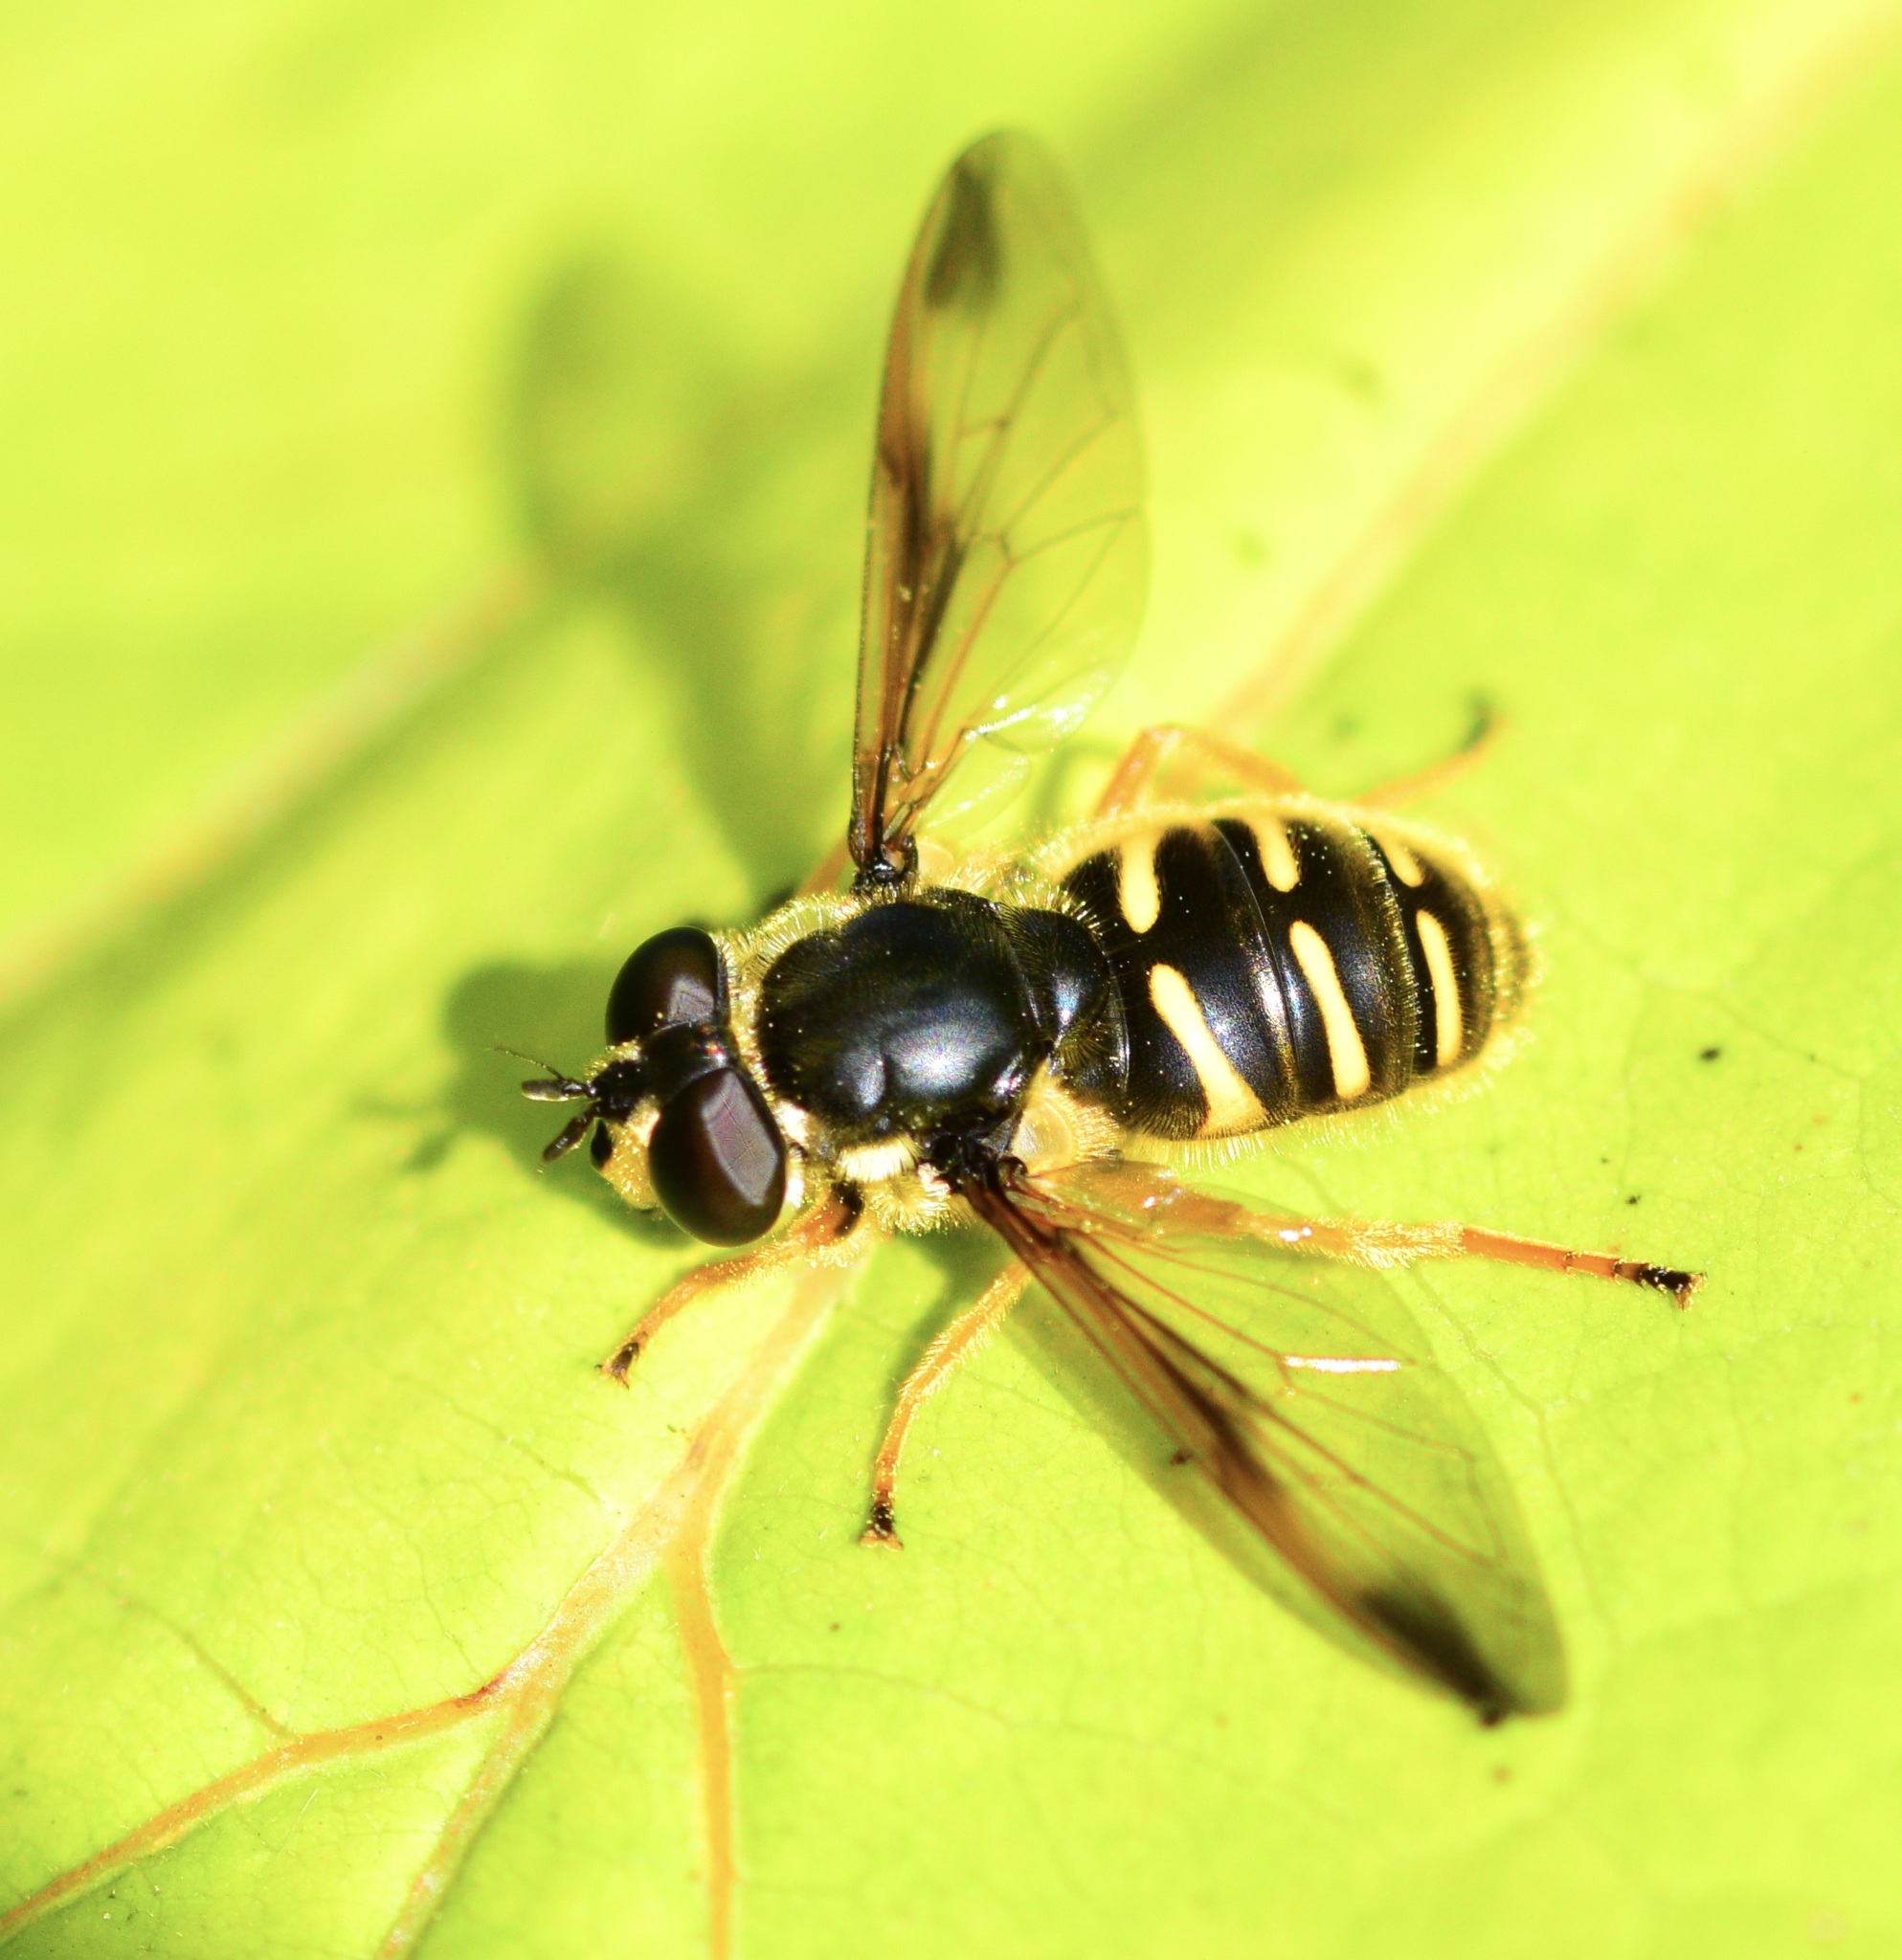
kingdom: Animalia
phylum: Arthropoda
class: Insecta
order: Diptera
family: Syrphidae
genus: Sericomyia
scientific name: Sericomyia chrysotoxoides
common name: Oblique-banded pond fly
